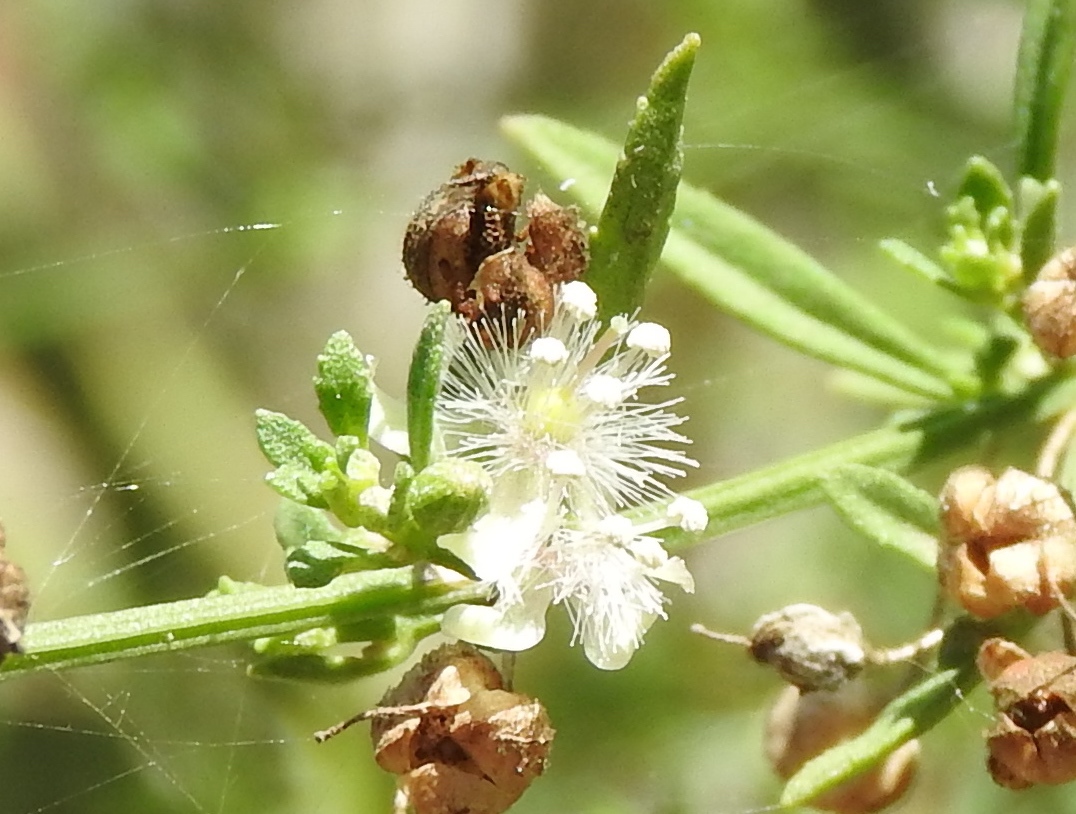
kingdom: Plantae
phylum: Tracheophyta
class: Magnoliopsida
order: Lamiales
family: Plantaginaceae
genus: Scoparia
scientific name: Scoparia dulcis
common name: Scoparia-weed
